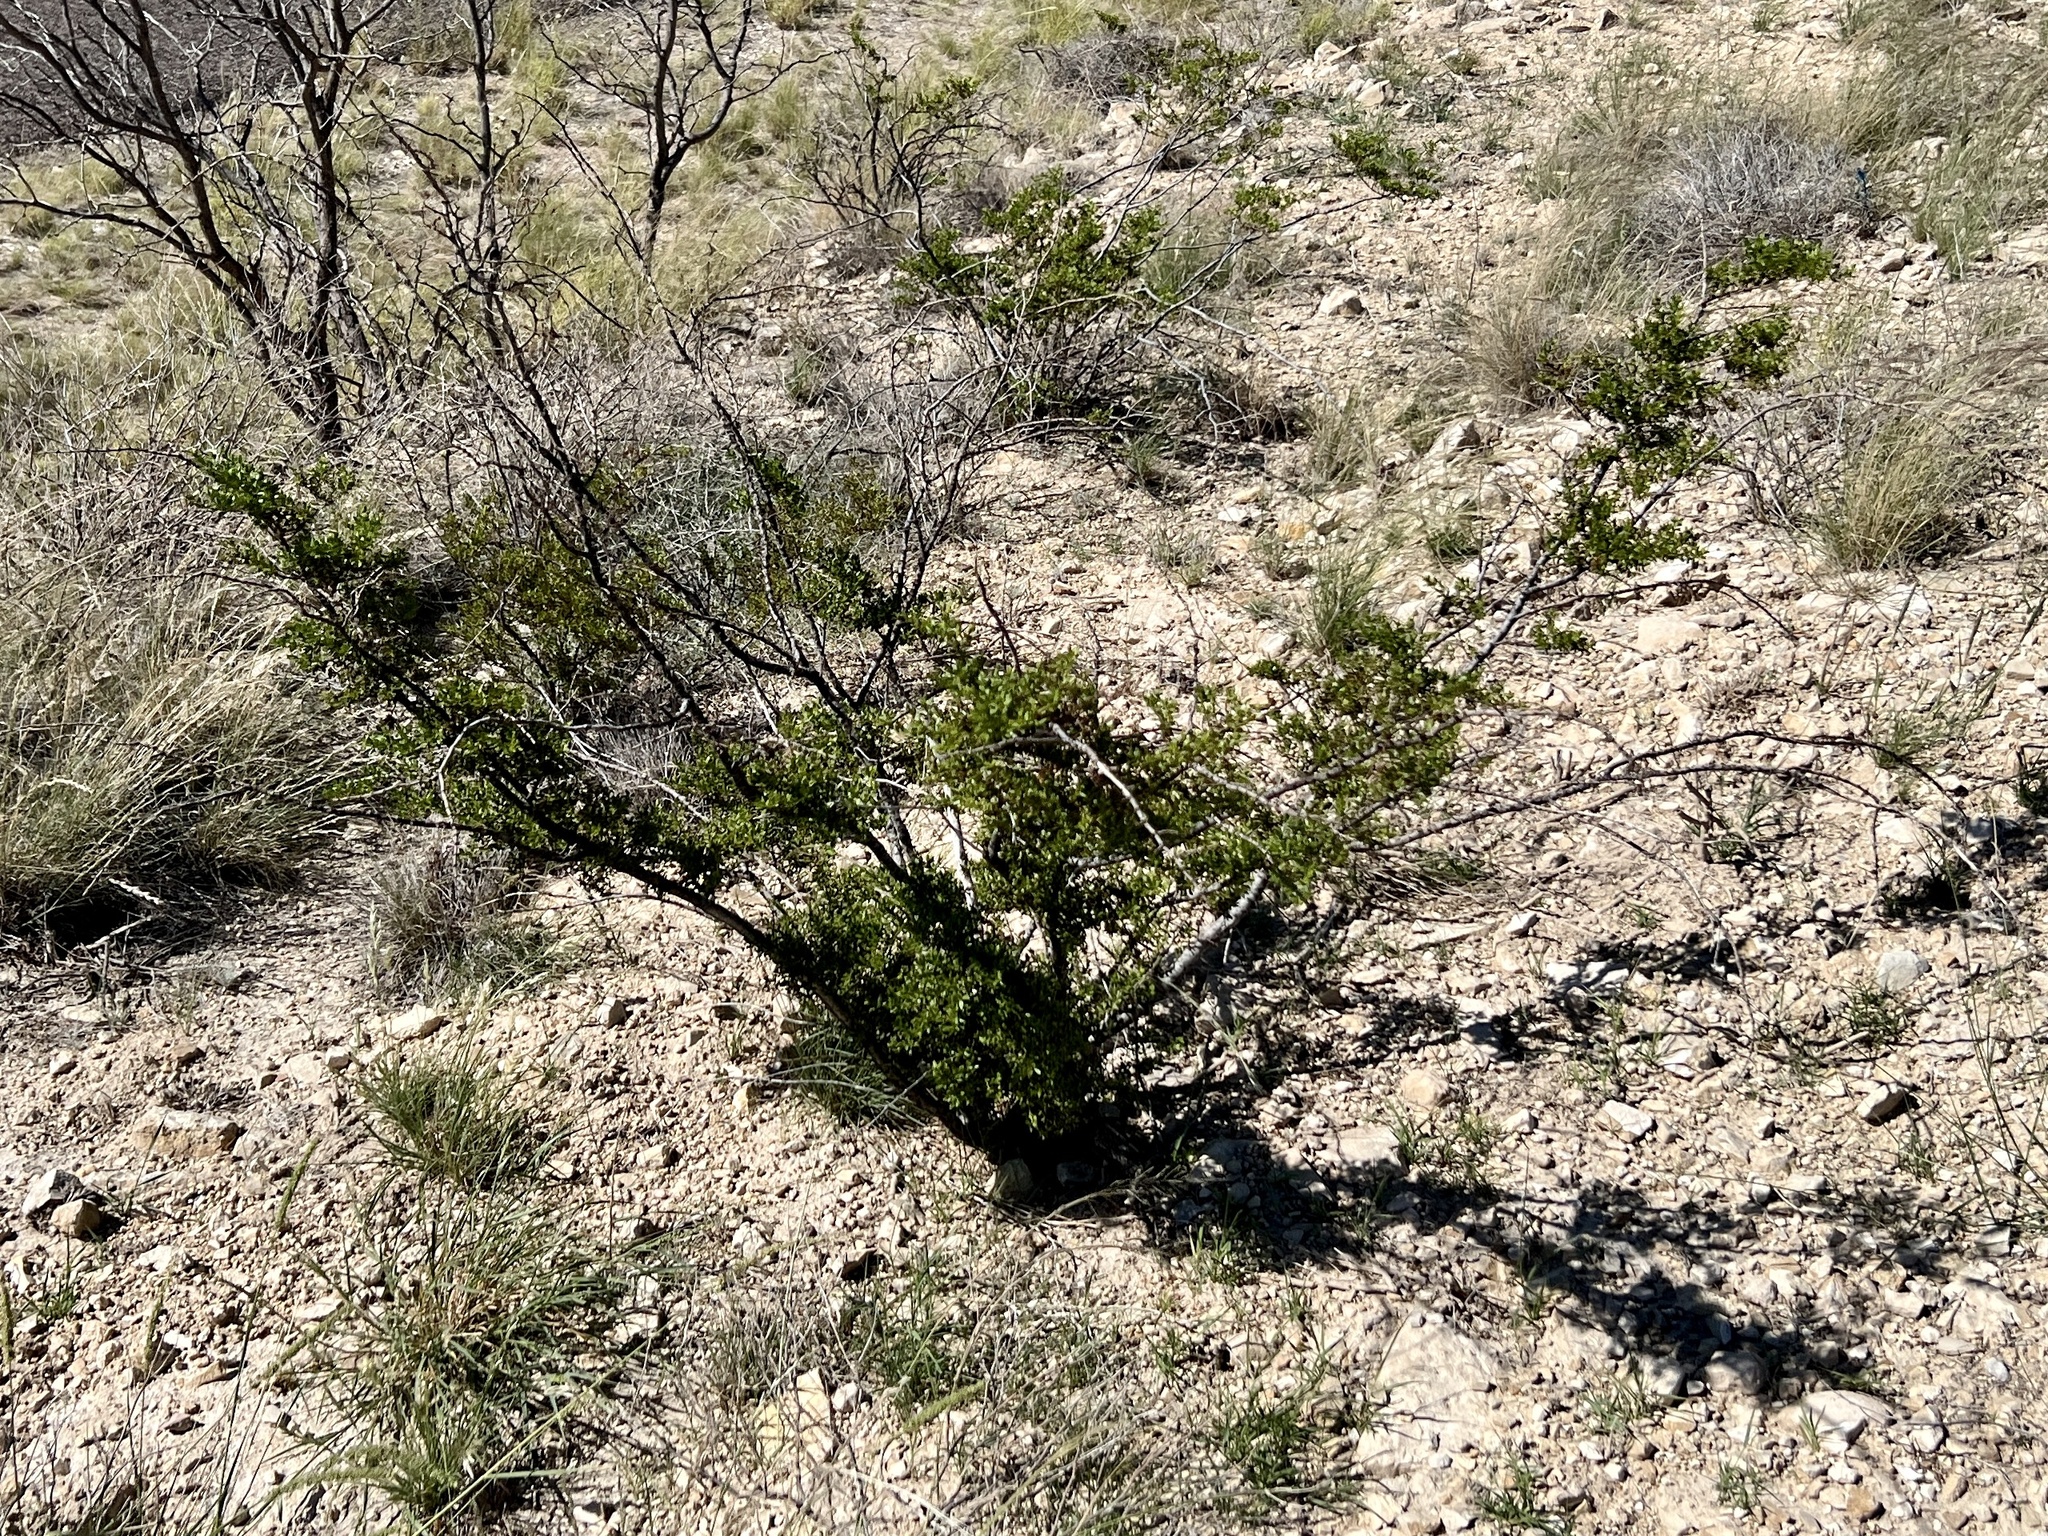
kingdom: Plantae
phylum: Tracheophyta
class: Magnoliopsida
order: Zygophyllales
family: Zygophyllaceae
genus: Larrea
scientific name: Larrea tridentata
